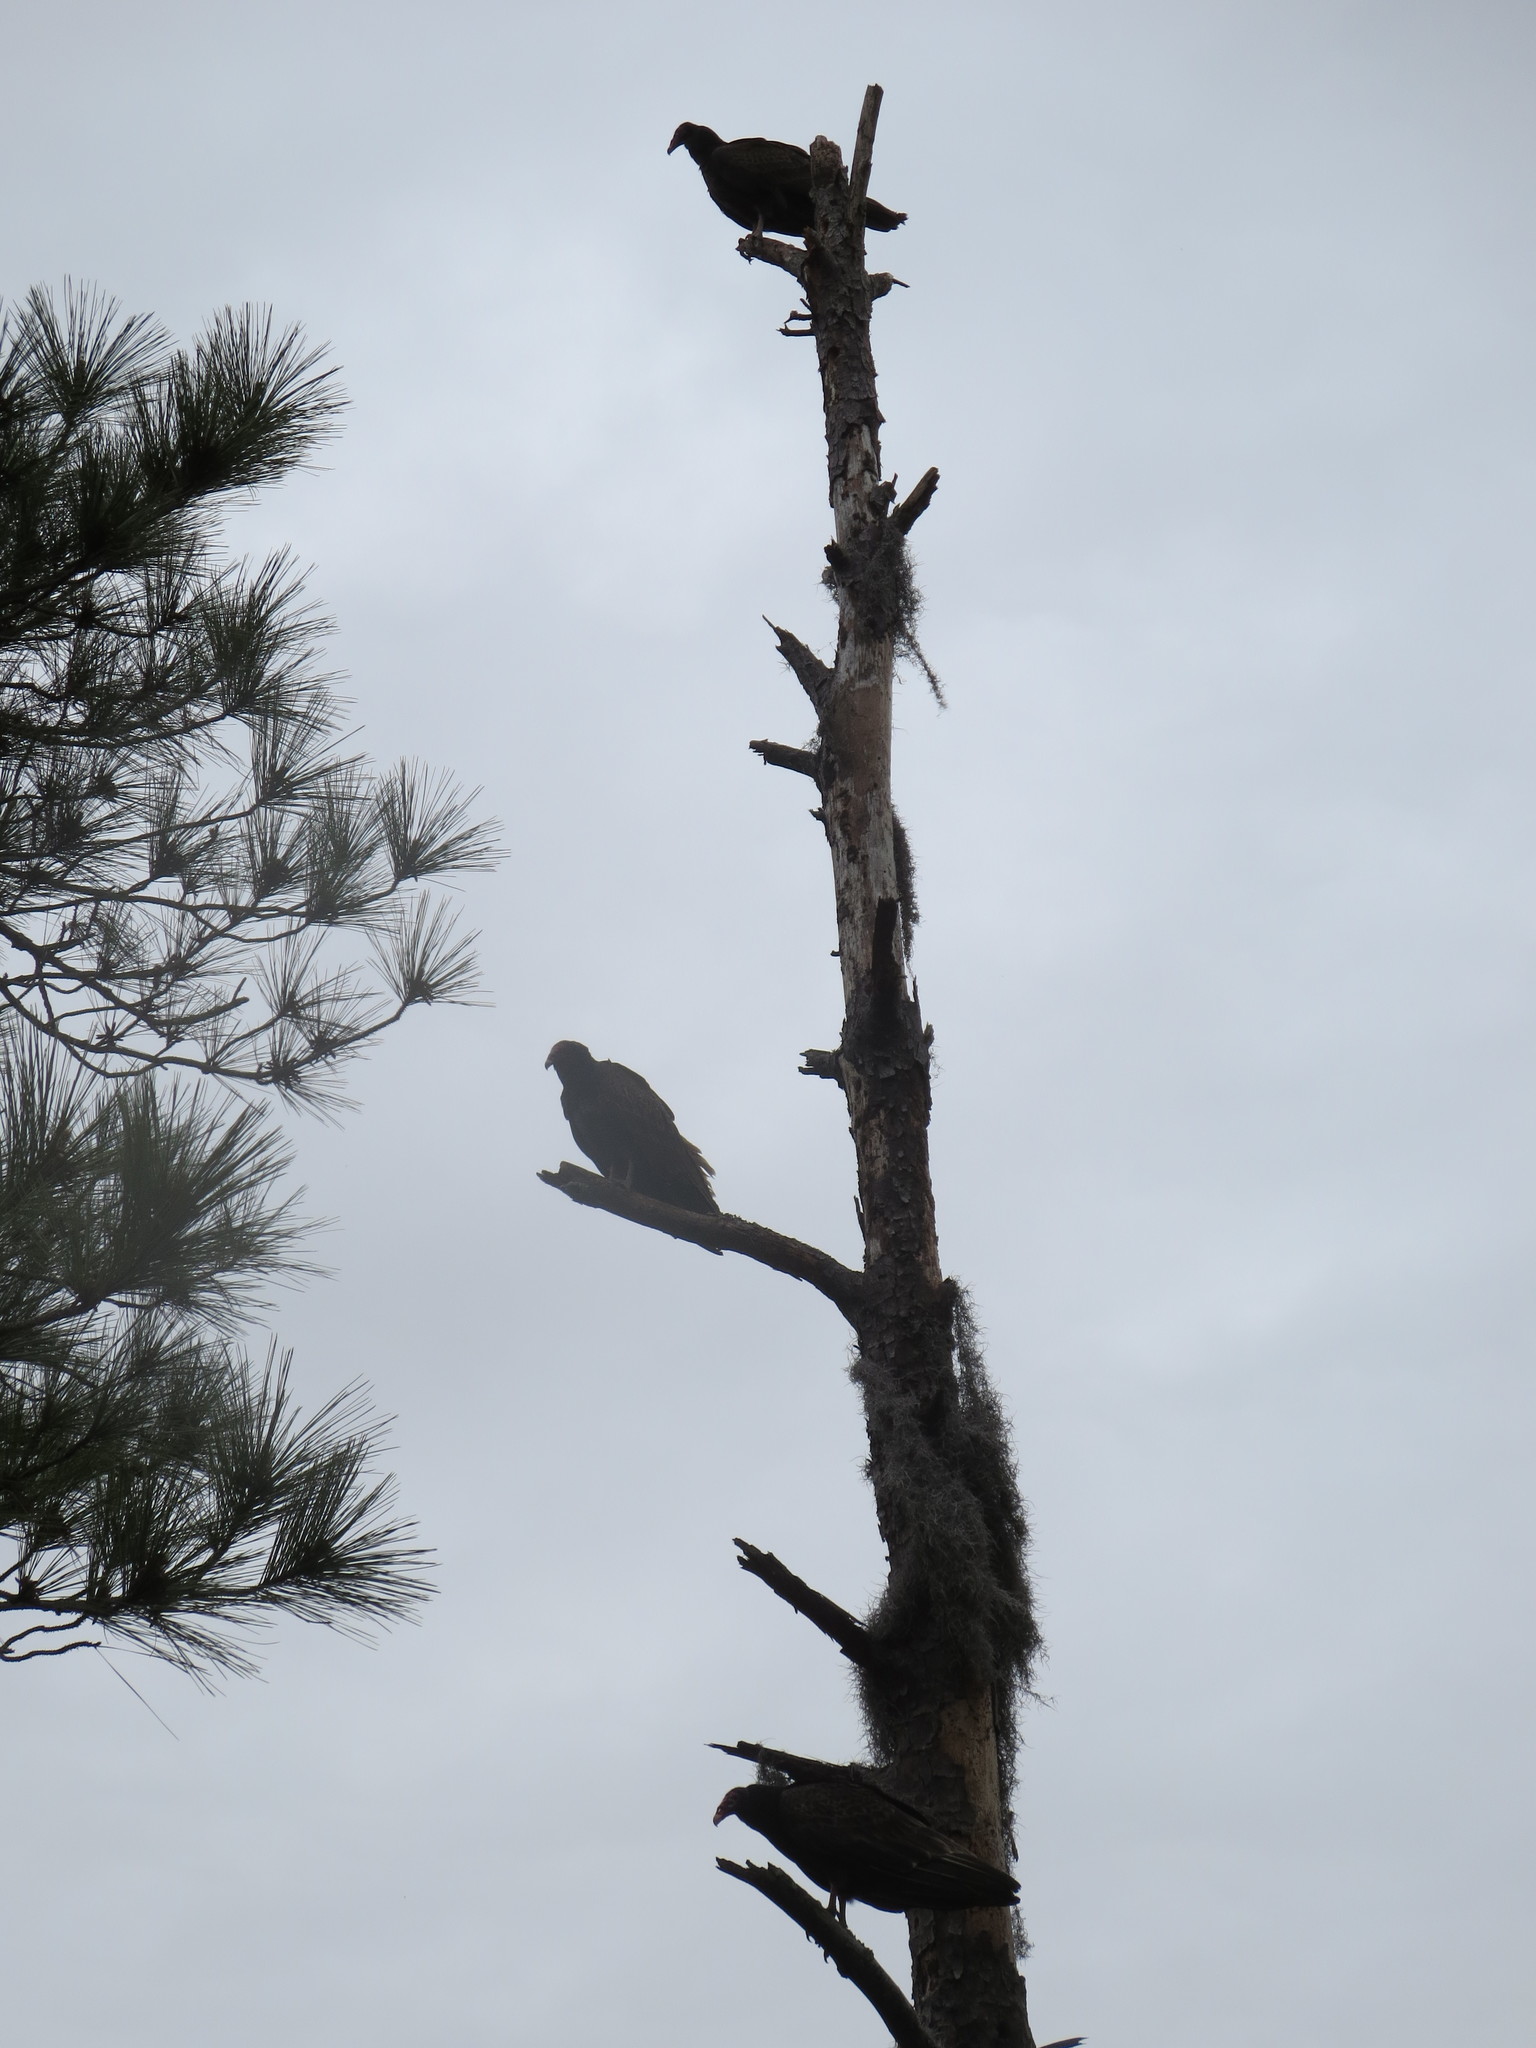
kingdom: Animalia
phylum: Chordata
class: Aves
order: Accipitriformes
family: Cathartidae
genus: Cathartes
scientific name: Cathartes aura
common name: Turkey vulture
